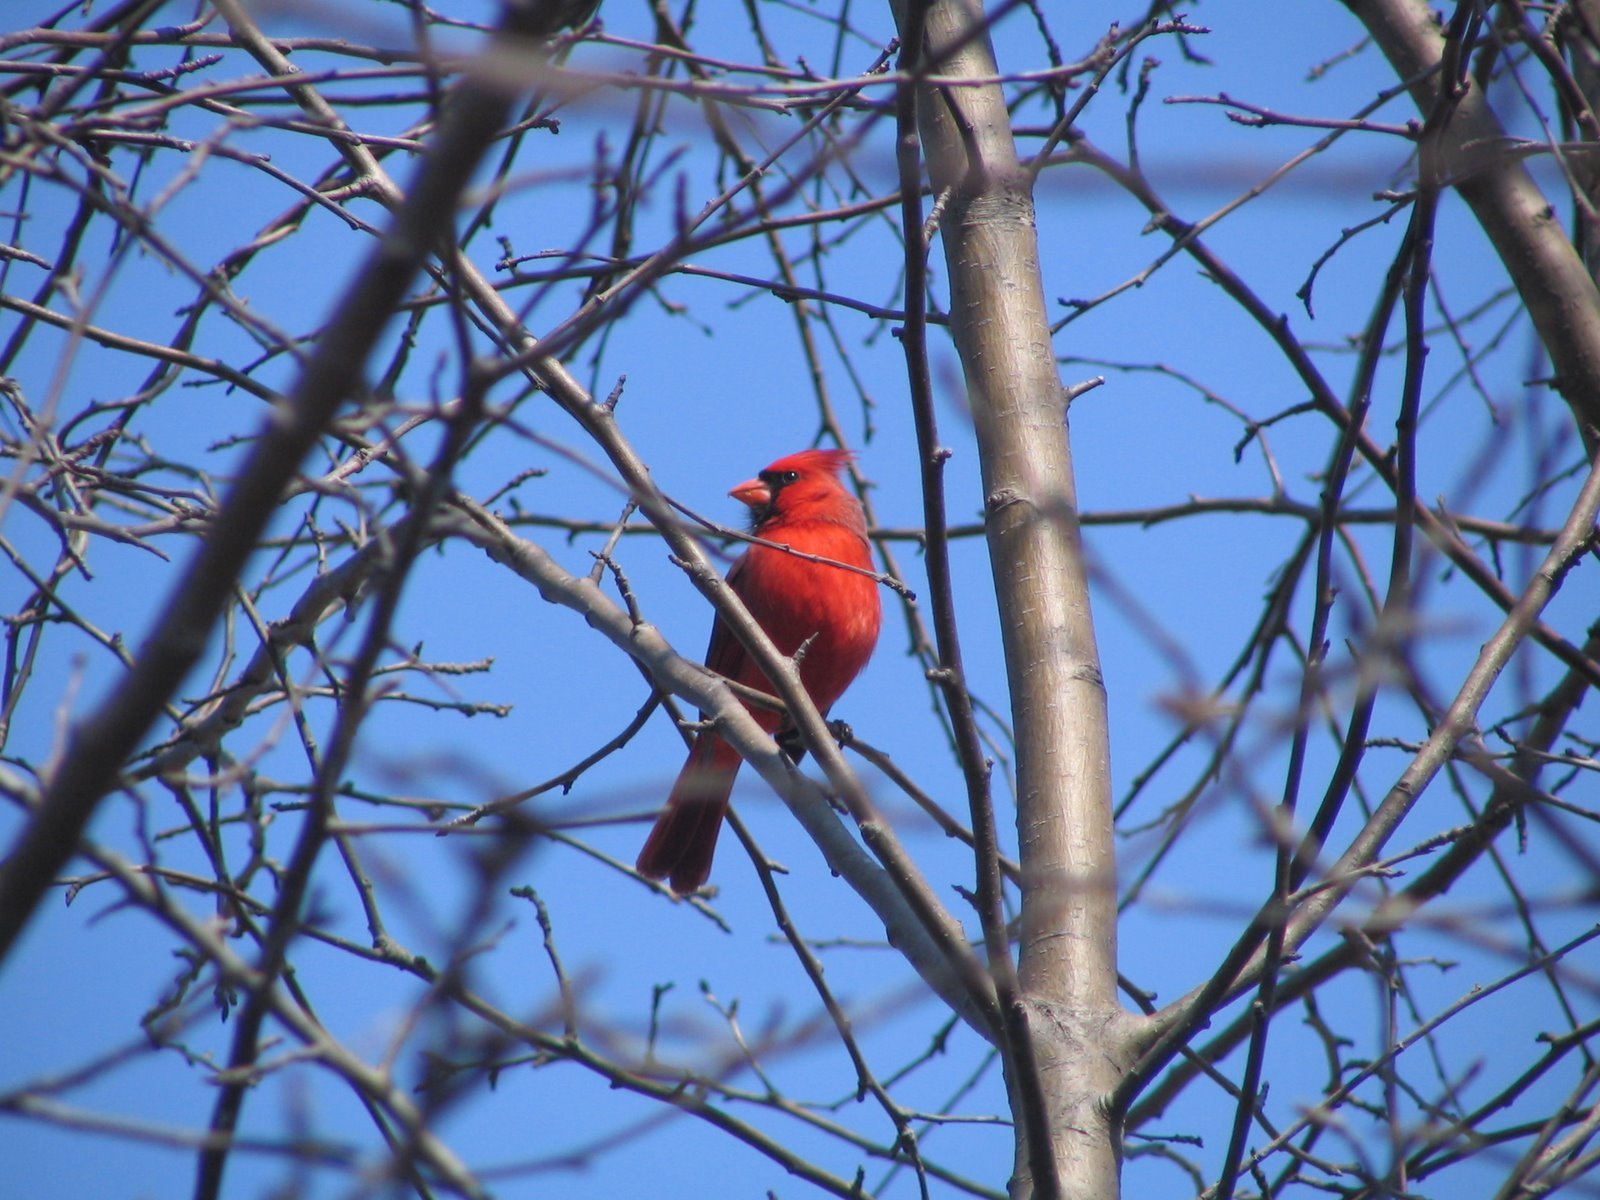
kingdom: Animalia
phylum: Chordata
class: Aves
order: Passeriformes
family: Cardinalidae
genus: Cardinalis
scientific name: Cardinalis cardinalis
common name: Northern cardinal
